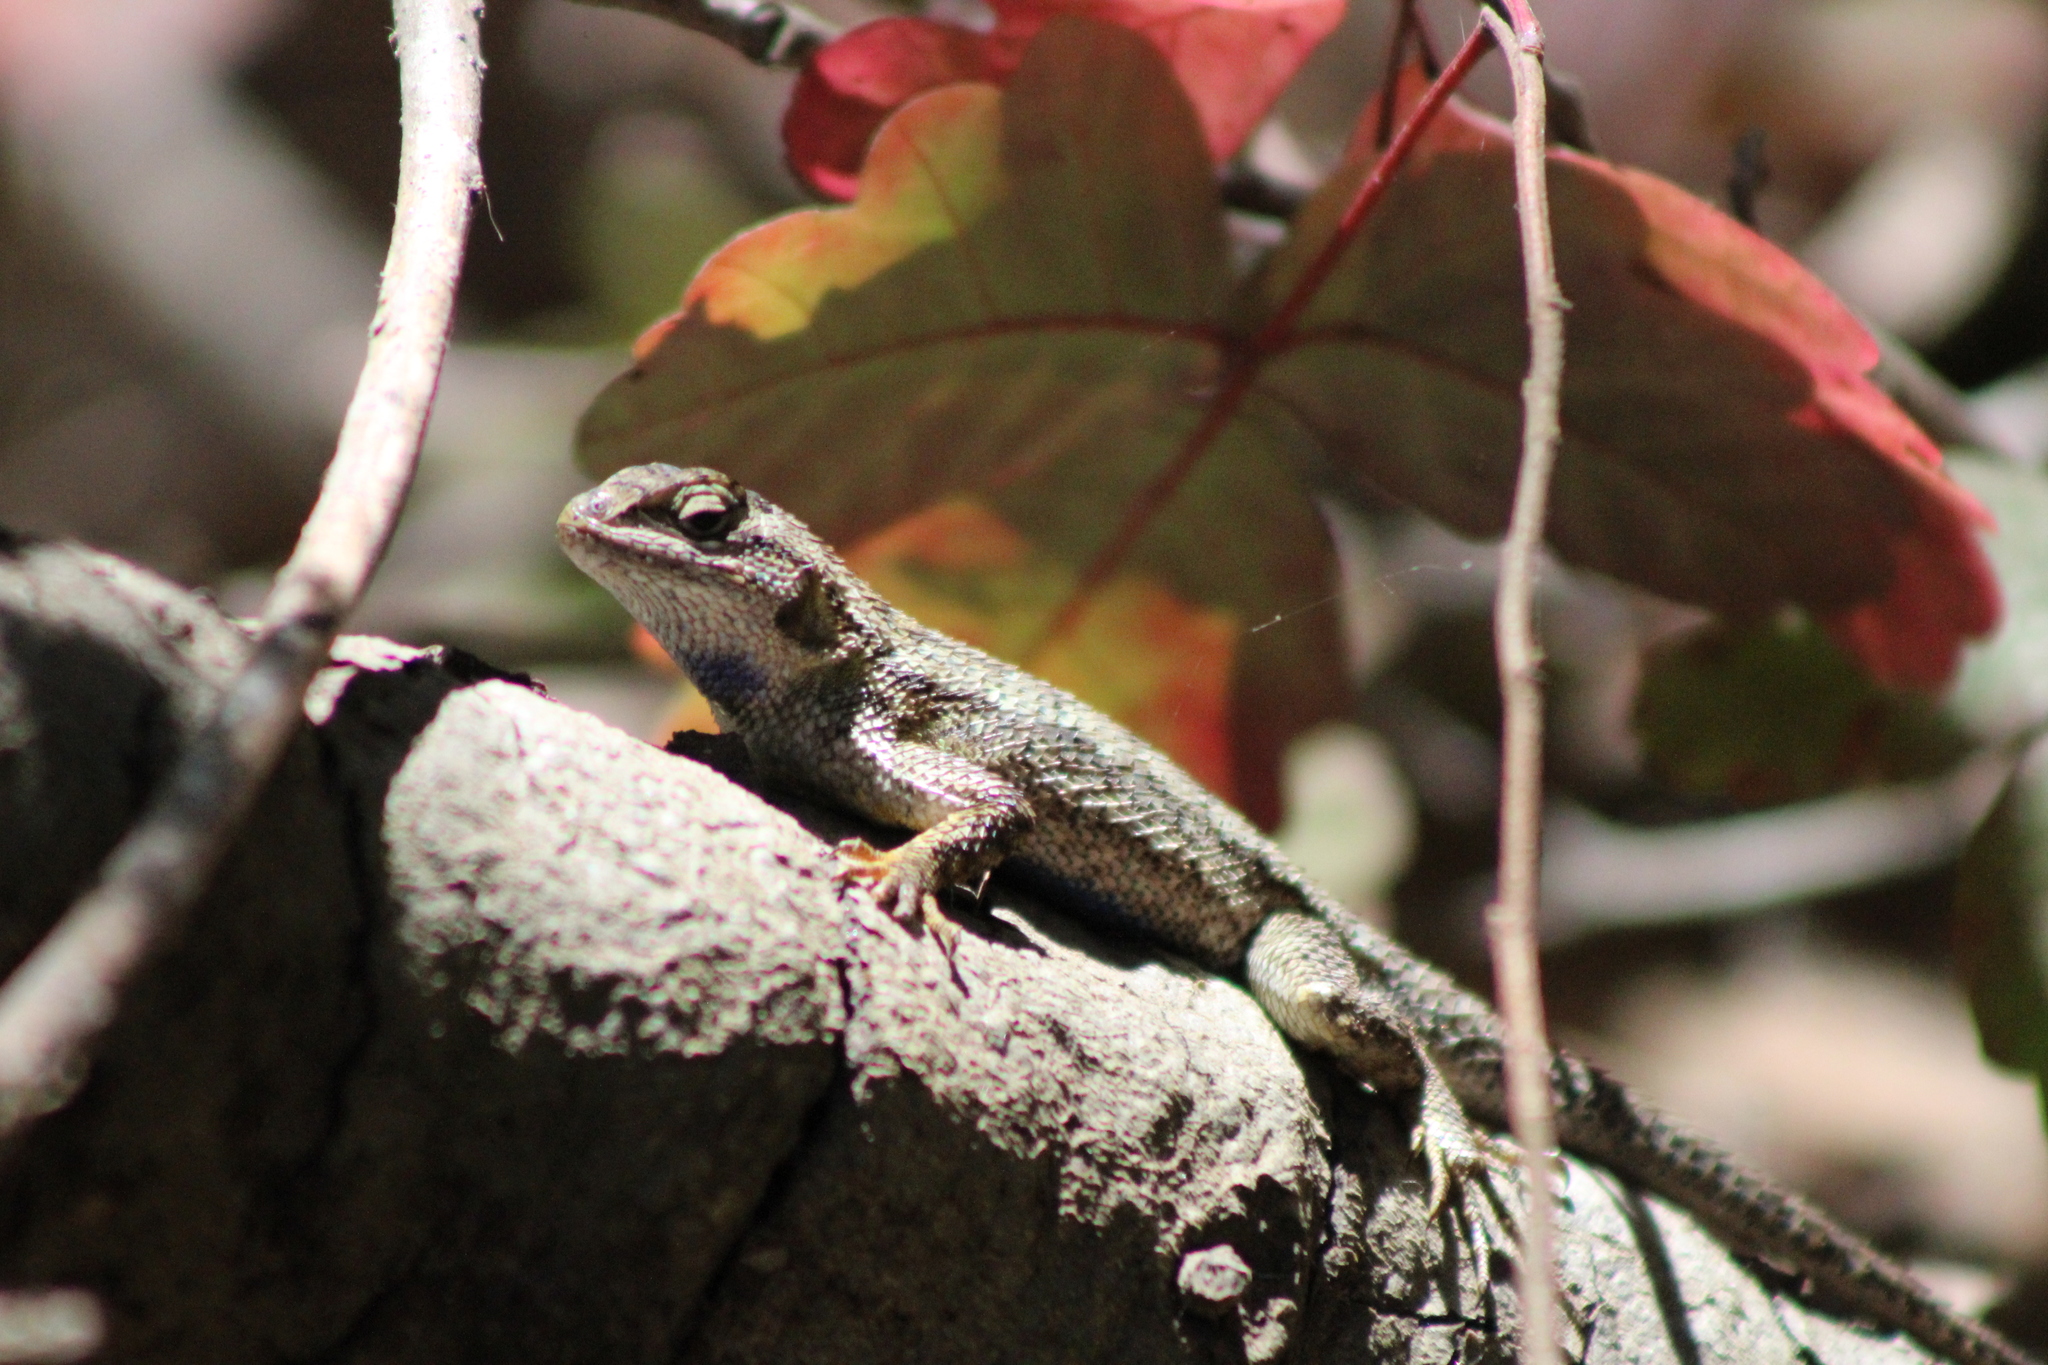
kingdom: Animalia
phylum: Chordata
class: Squamata
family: Phrynosomatidae
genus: Sceloporus
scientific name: Sceloporus occidentalis
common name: Western fence lizard
